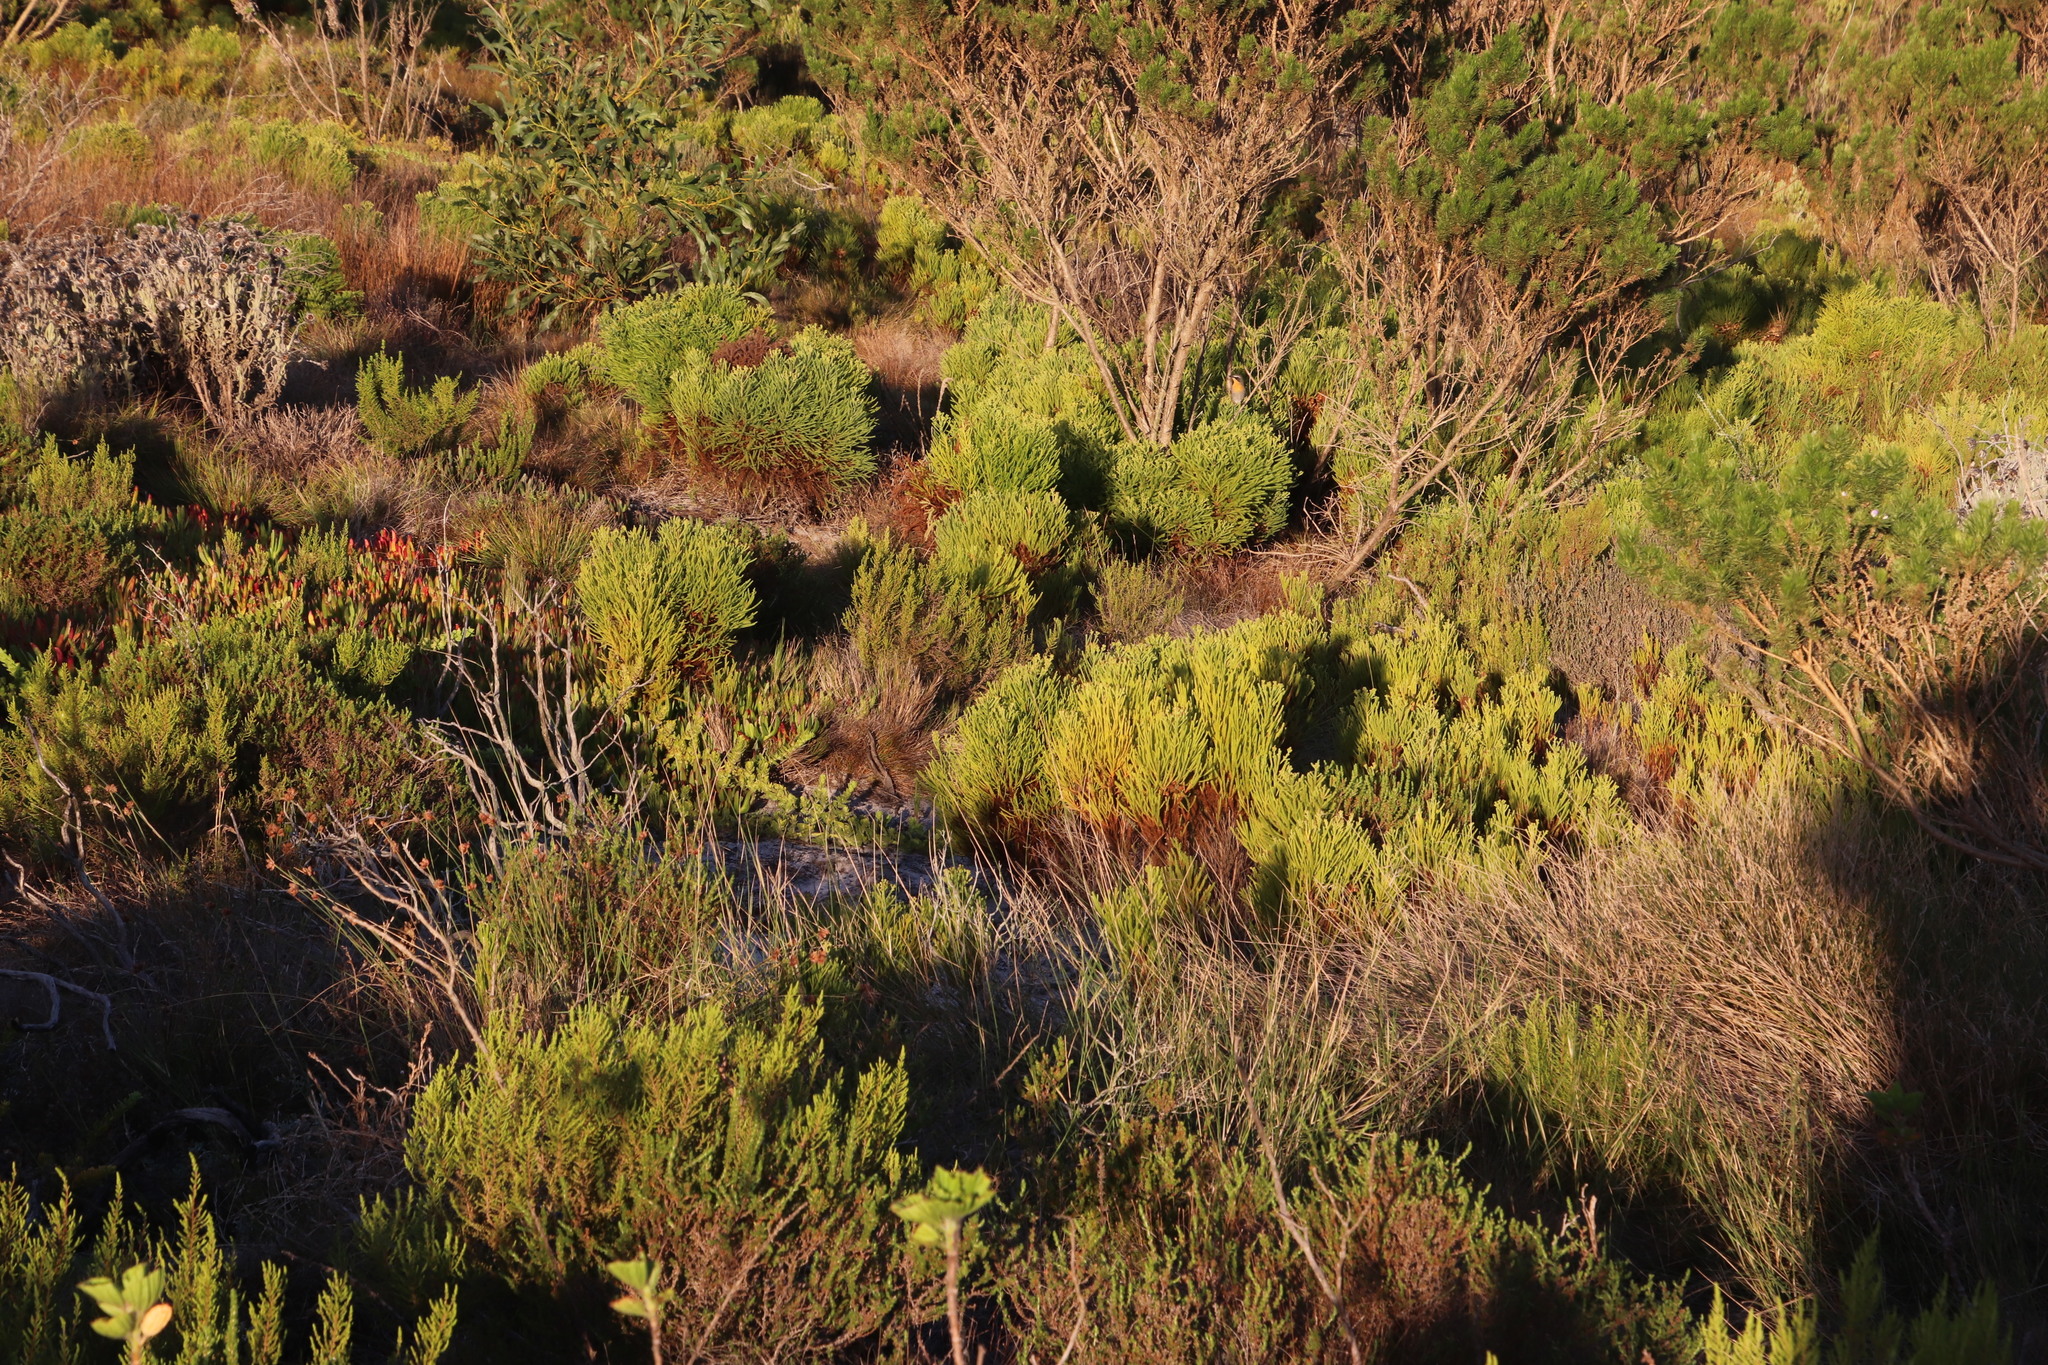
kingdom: Plantae
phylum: Tracheophyta
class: Magnoliopsida
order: Bruniales
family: Bruniaceae
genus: Berzelia
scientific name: Berzelia lanuginosa
